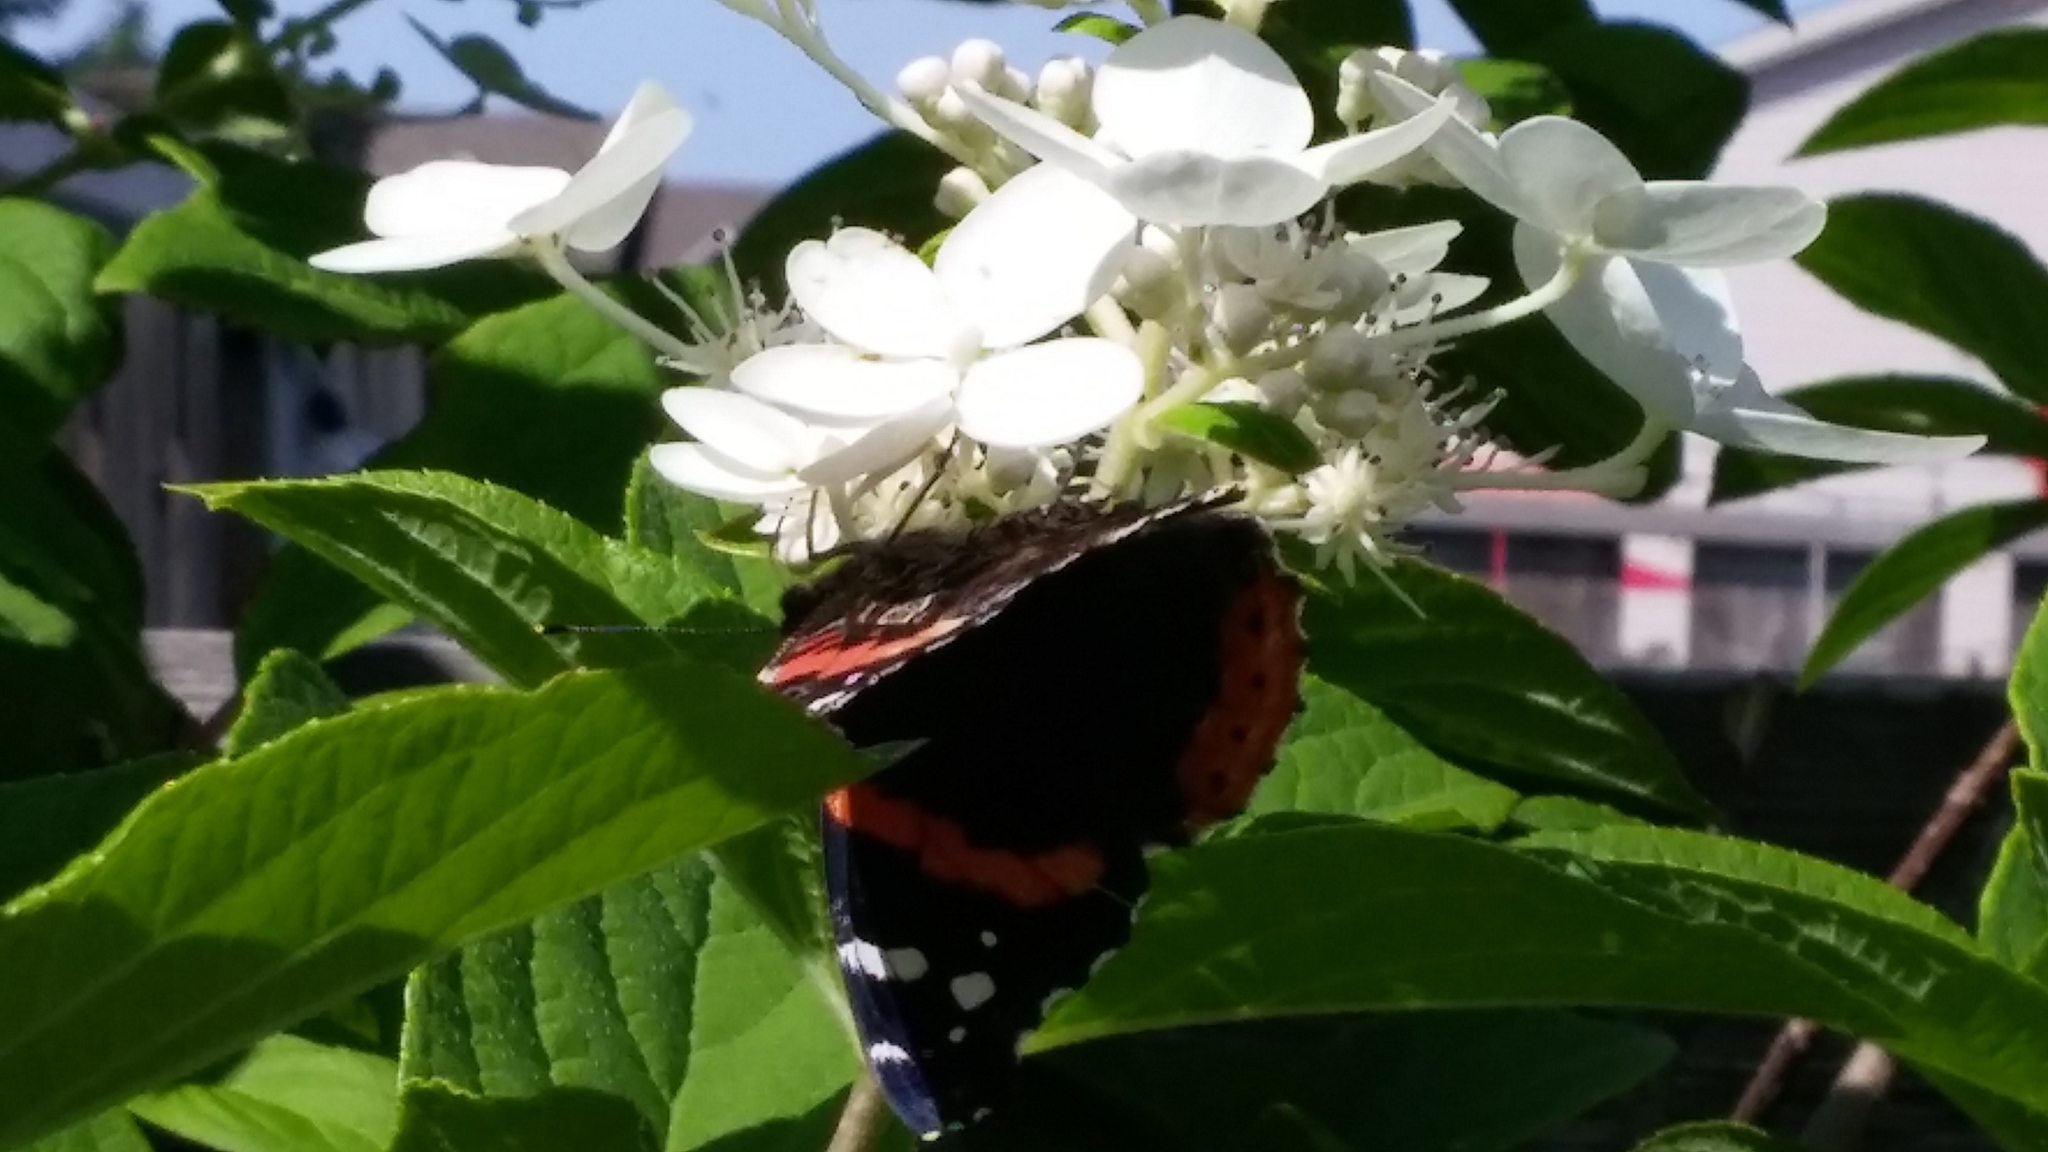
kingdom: Animalia
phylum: Arthropoda
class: Insecta
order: Lepidoptera
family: Nymphalidae
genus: Vanessa
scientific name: Vanessa atalanta
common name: Red admiral
